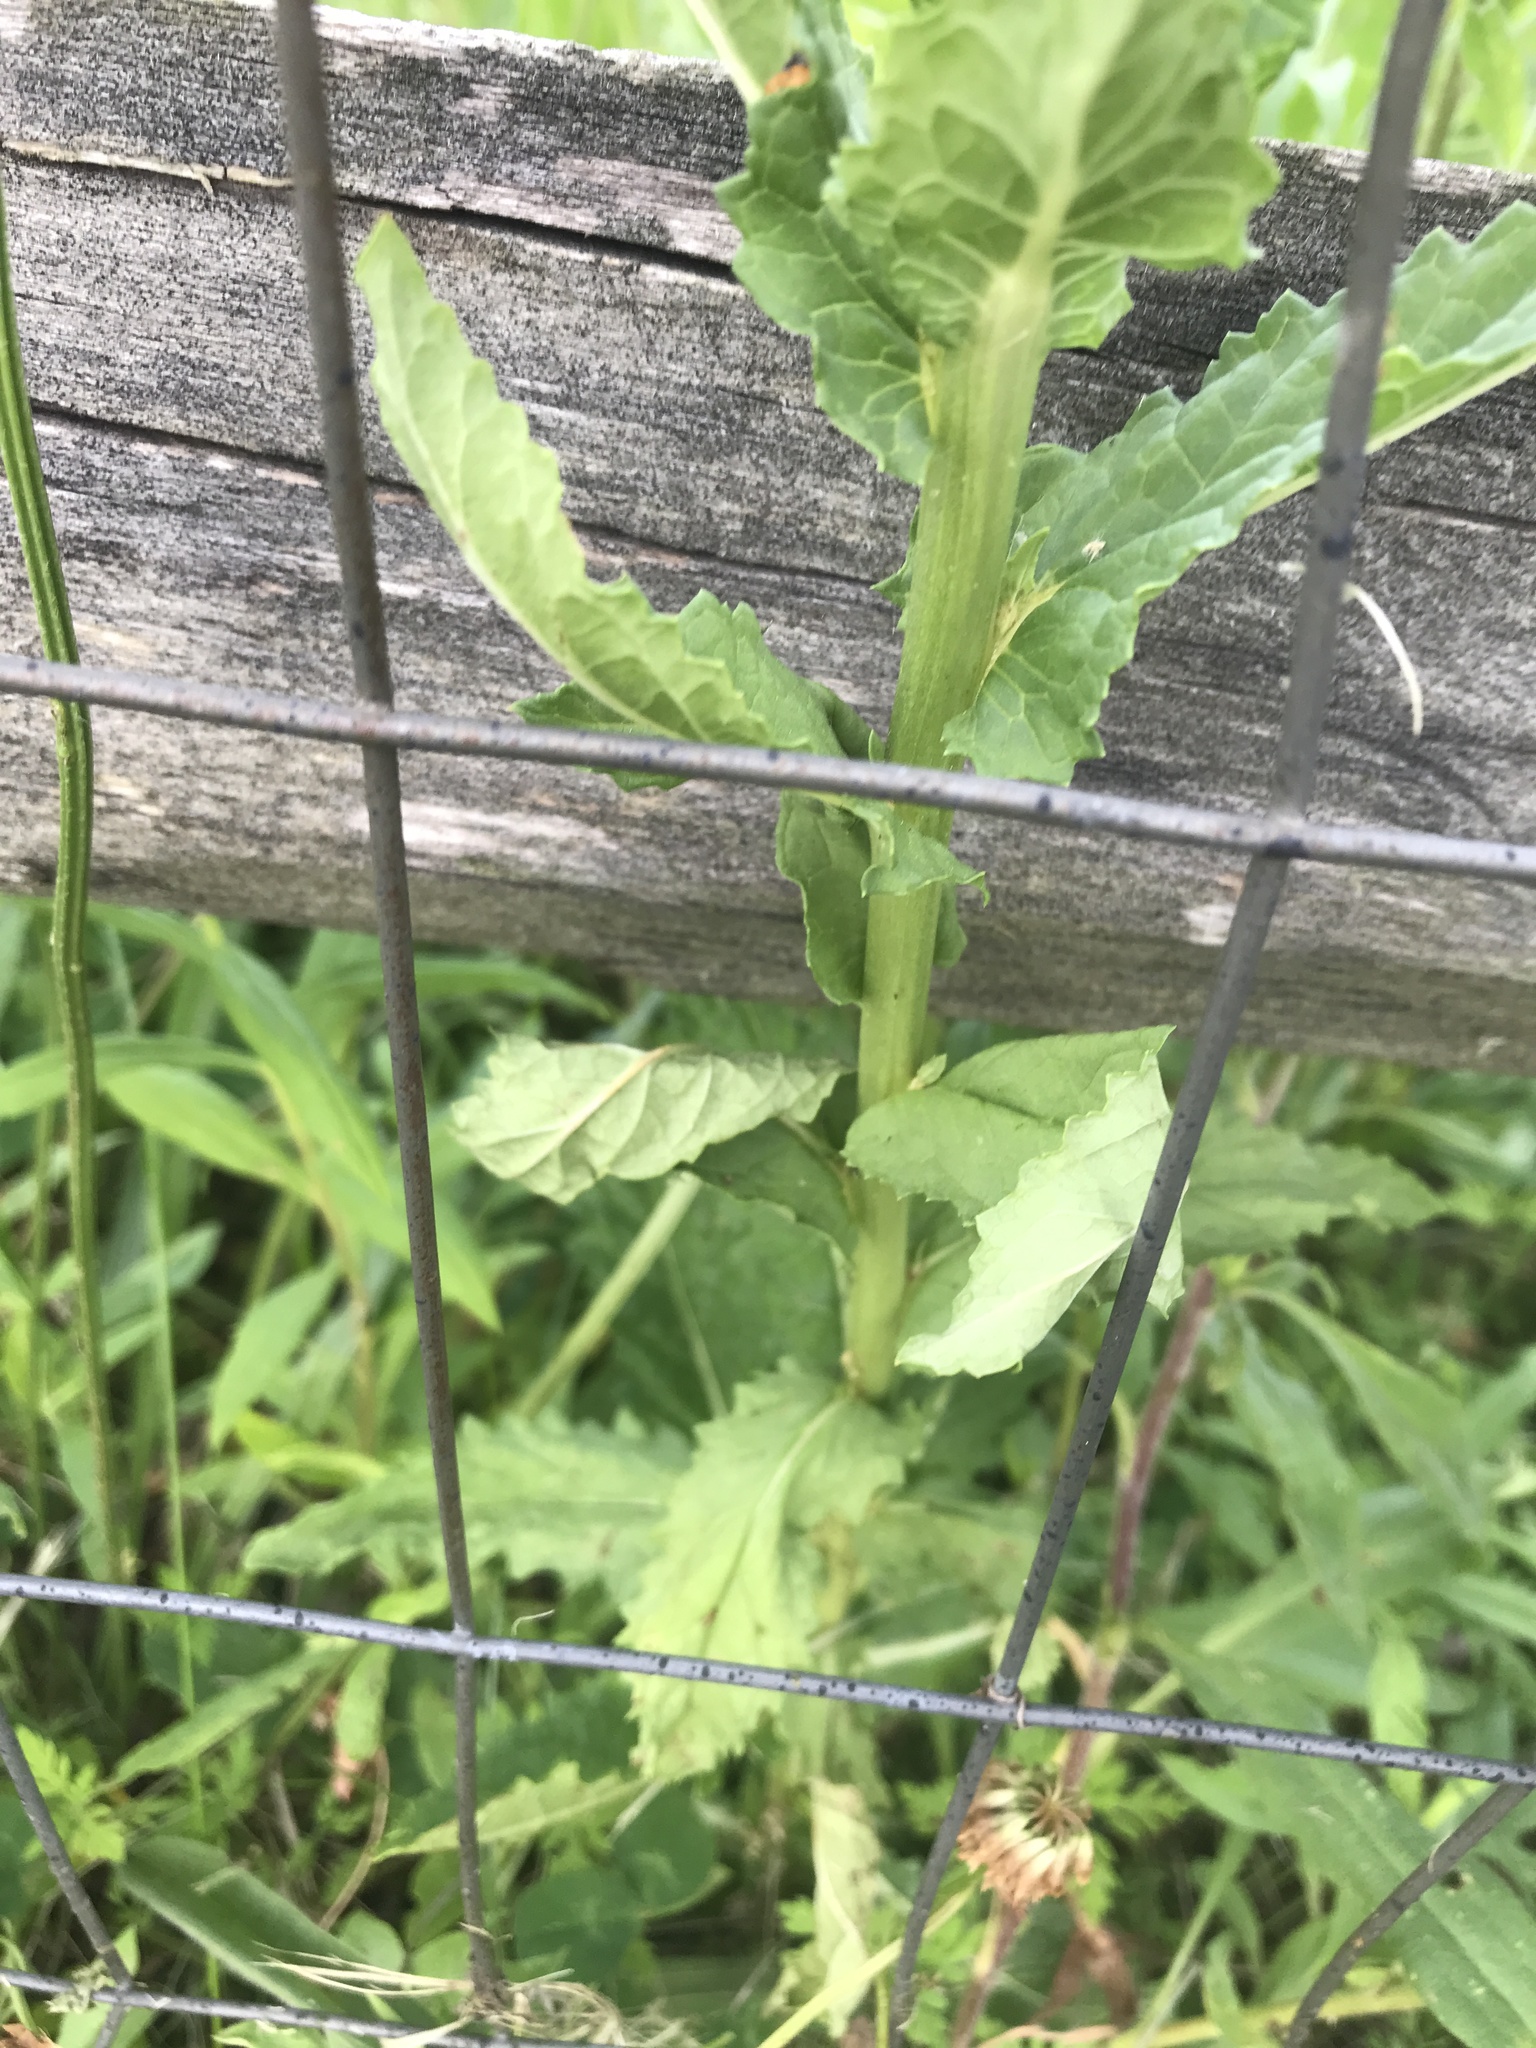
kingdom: Plantae
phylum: Tracheophyta
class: Magnoliopsida
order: Lamiales
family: Scrophulariaceae
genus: Verbascum
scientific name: Verbascum blattaria
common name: Moth mullein
